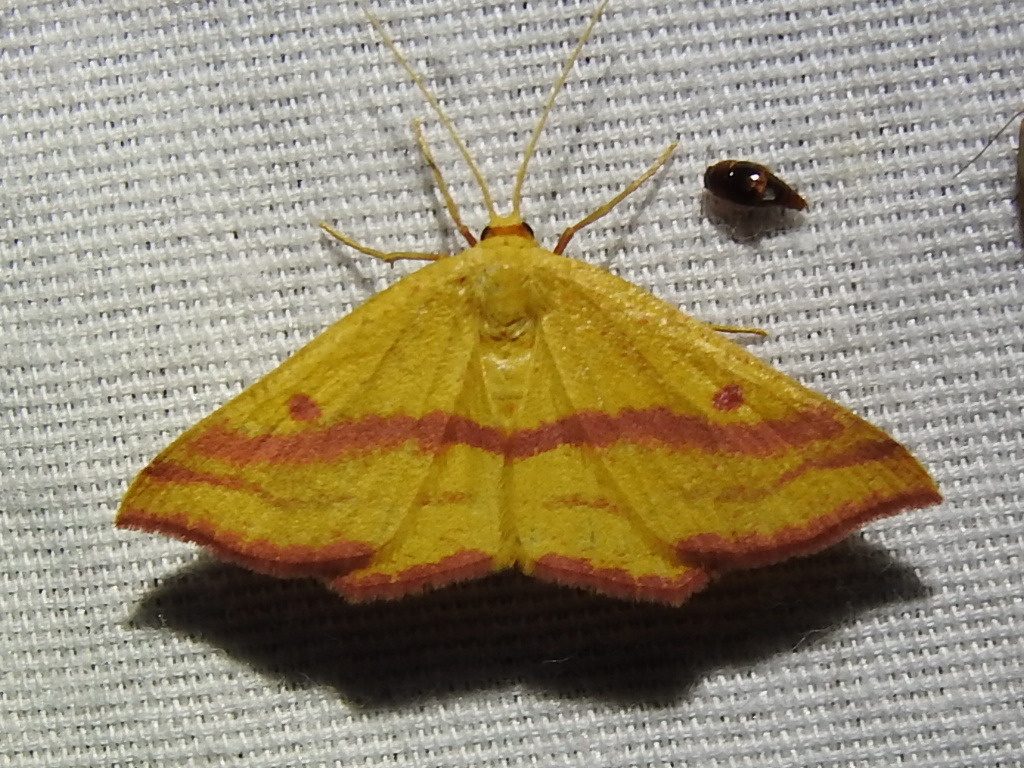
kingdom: Animalia
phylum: Arthropoda
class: Insecta
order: Lepidoptera
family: Geometridae
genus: Haematopis
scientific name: Haematopis grataria
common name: Chickweed geometer
